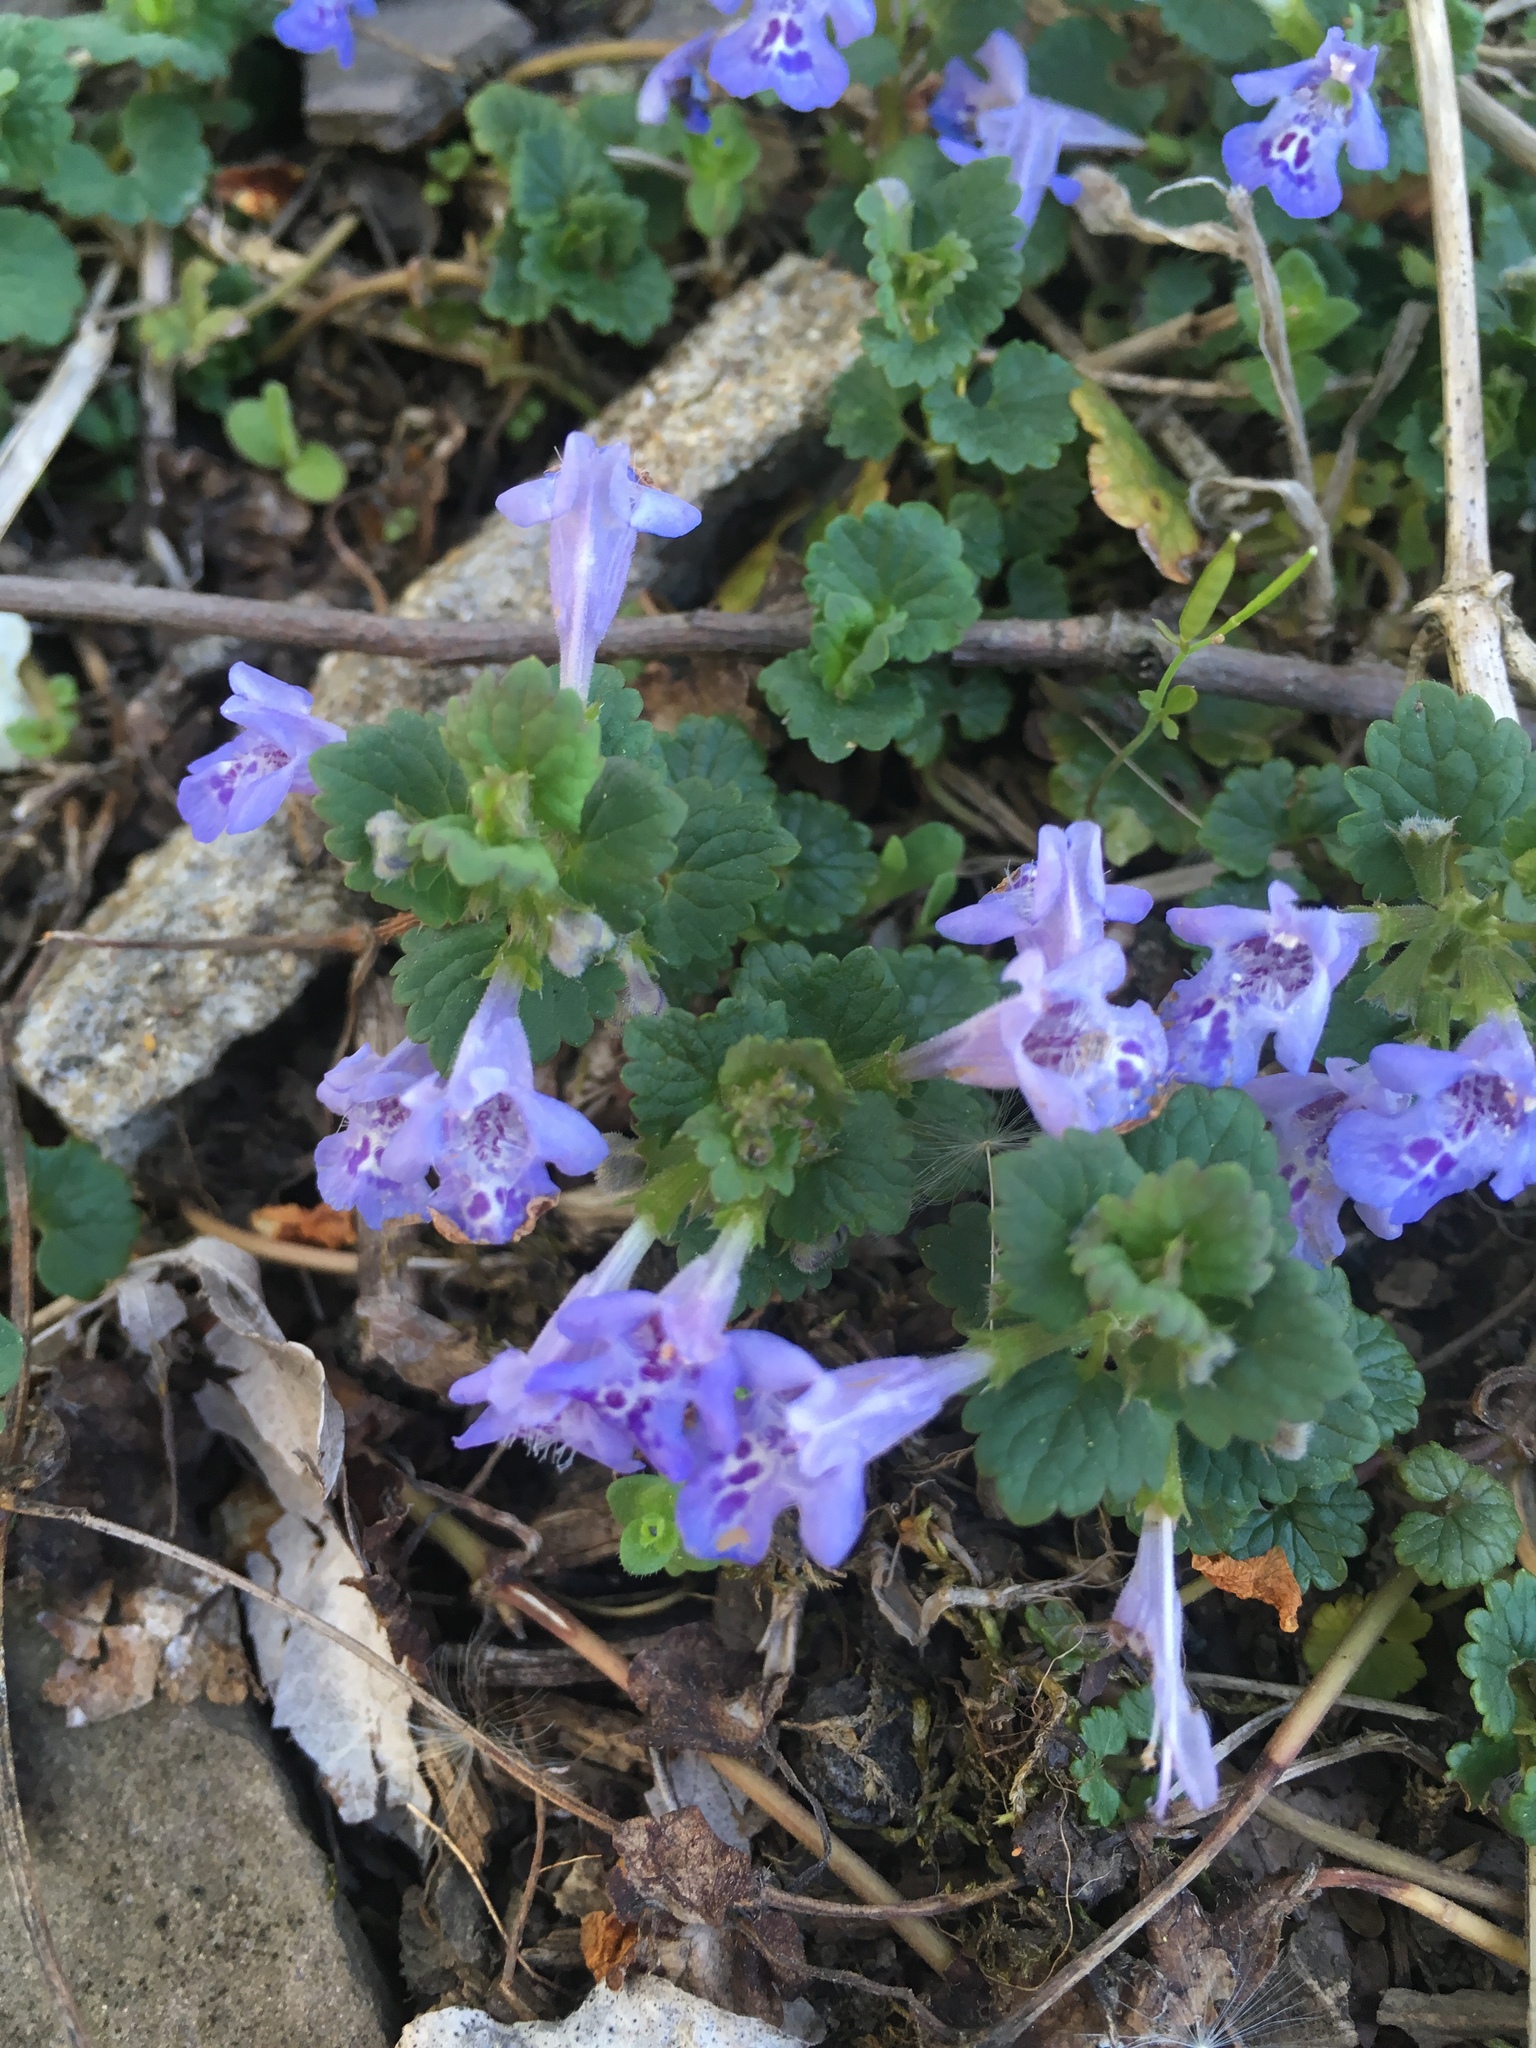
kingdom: Plantae
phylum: Tracheophyta
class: Magnoliopsida
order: Lamiales
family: Lamiaceae
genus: Glechoma
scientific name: Glechoma hederacea
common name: Ground ivy
